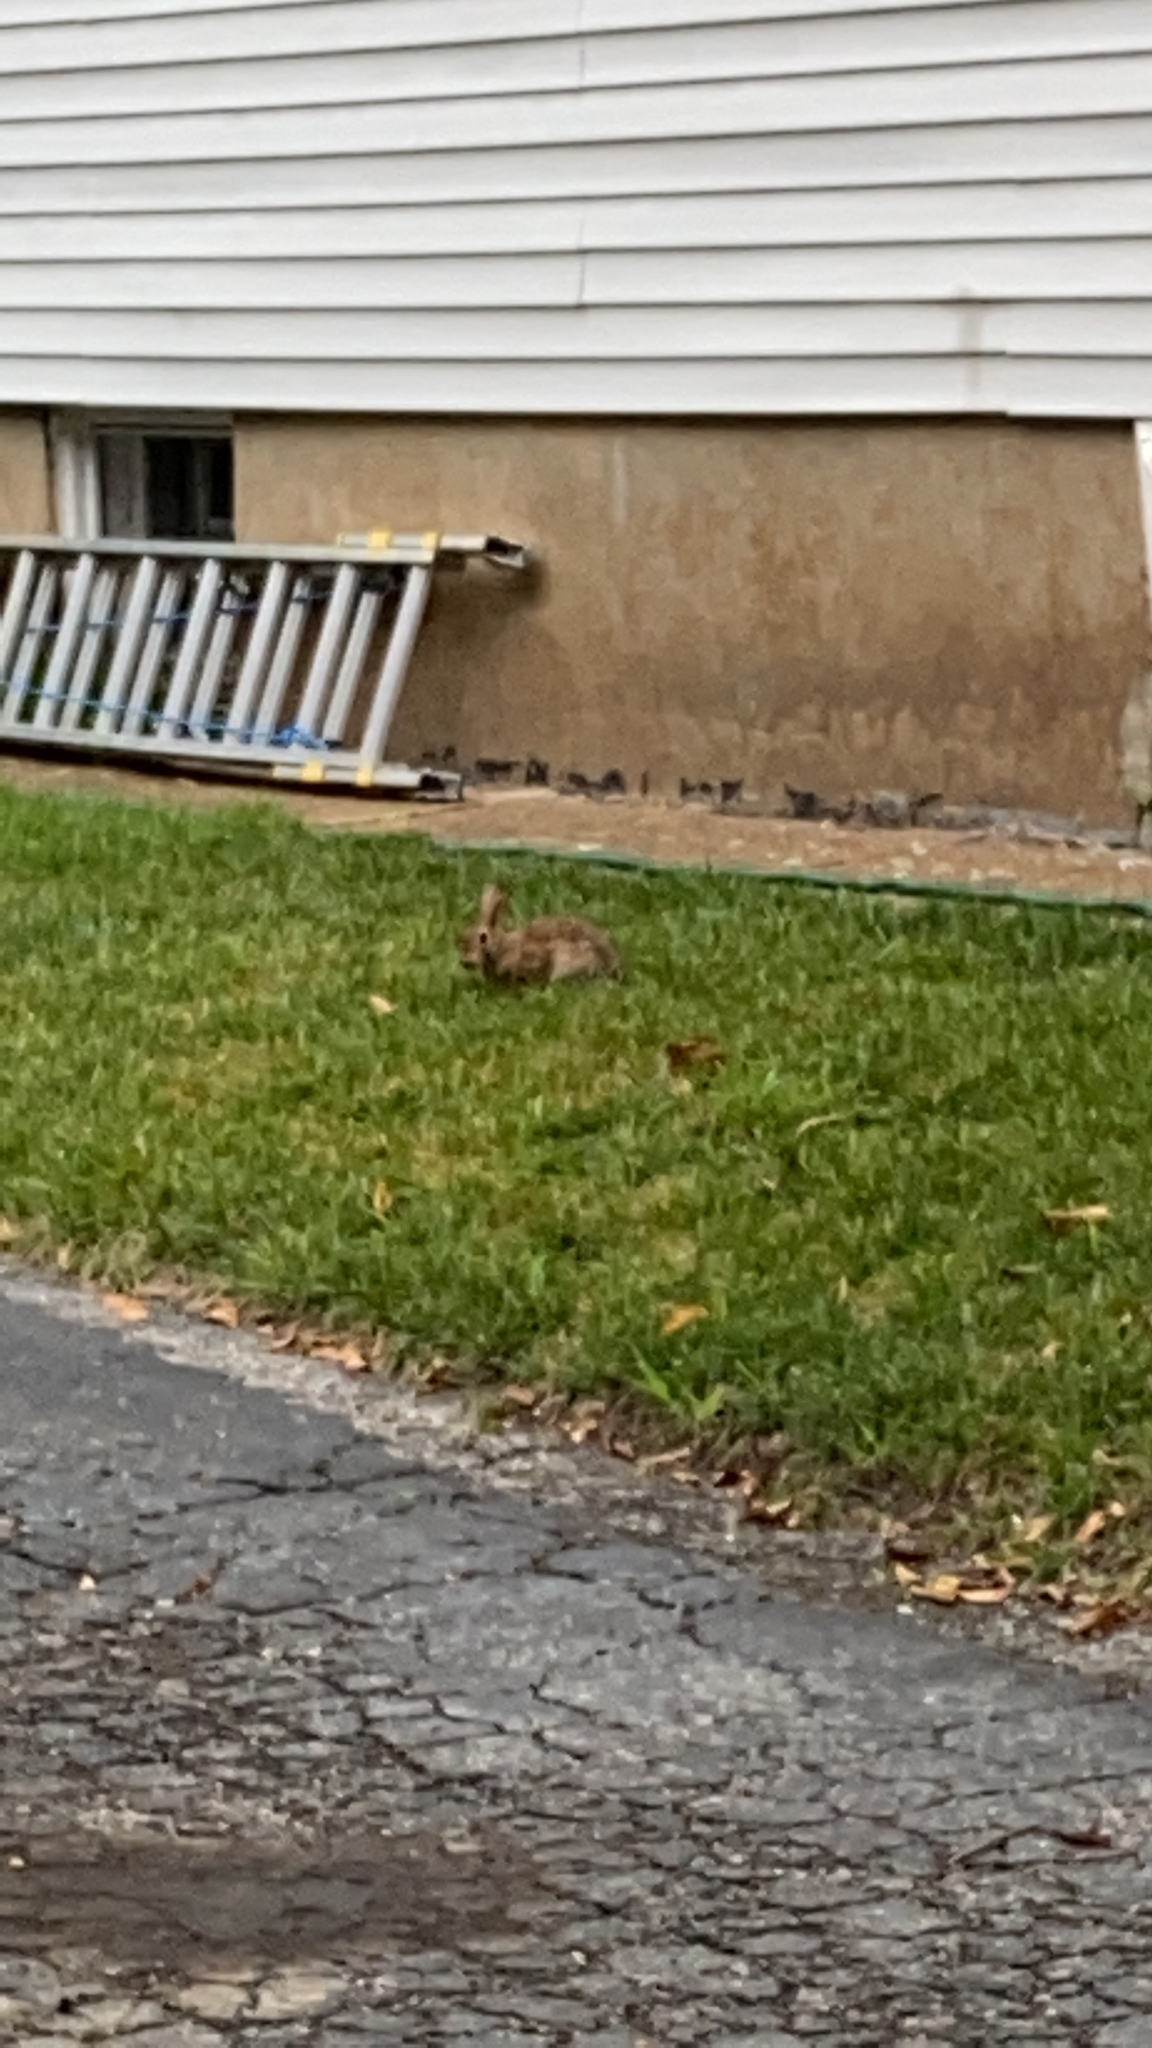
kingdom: Animalia
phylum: Chordata
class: Mammalia
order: Lagomorpha
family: Leporidae
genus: Sylvilagus
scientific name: Sylvilagus floridanus
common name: Eastern cottontail
